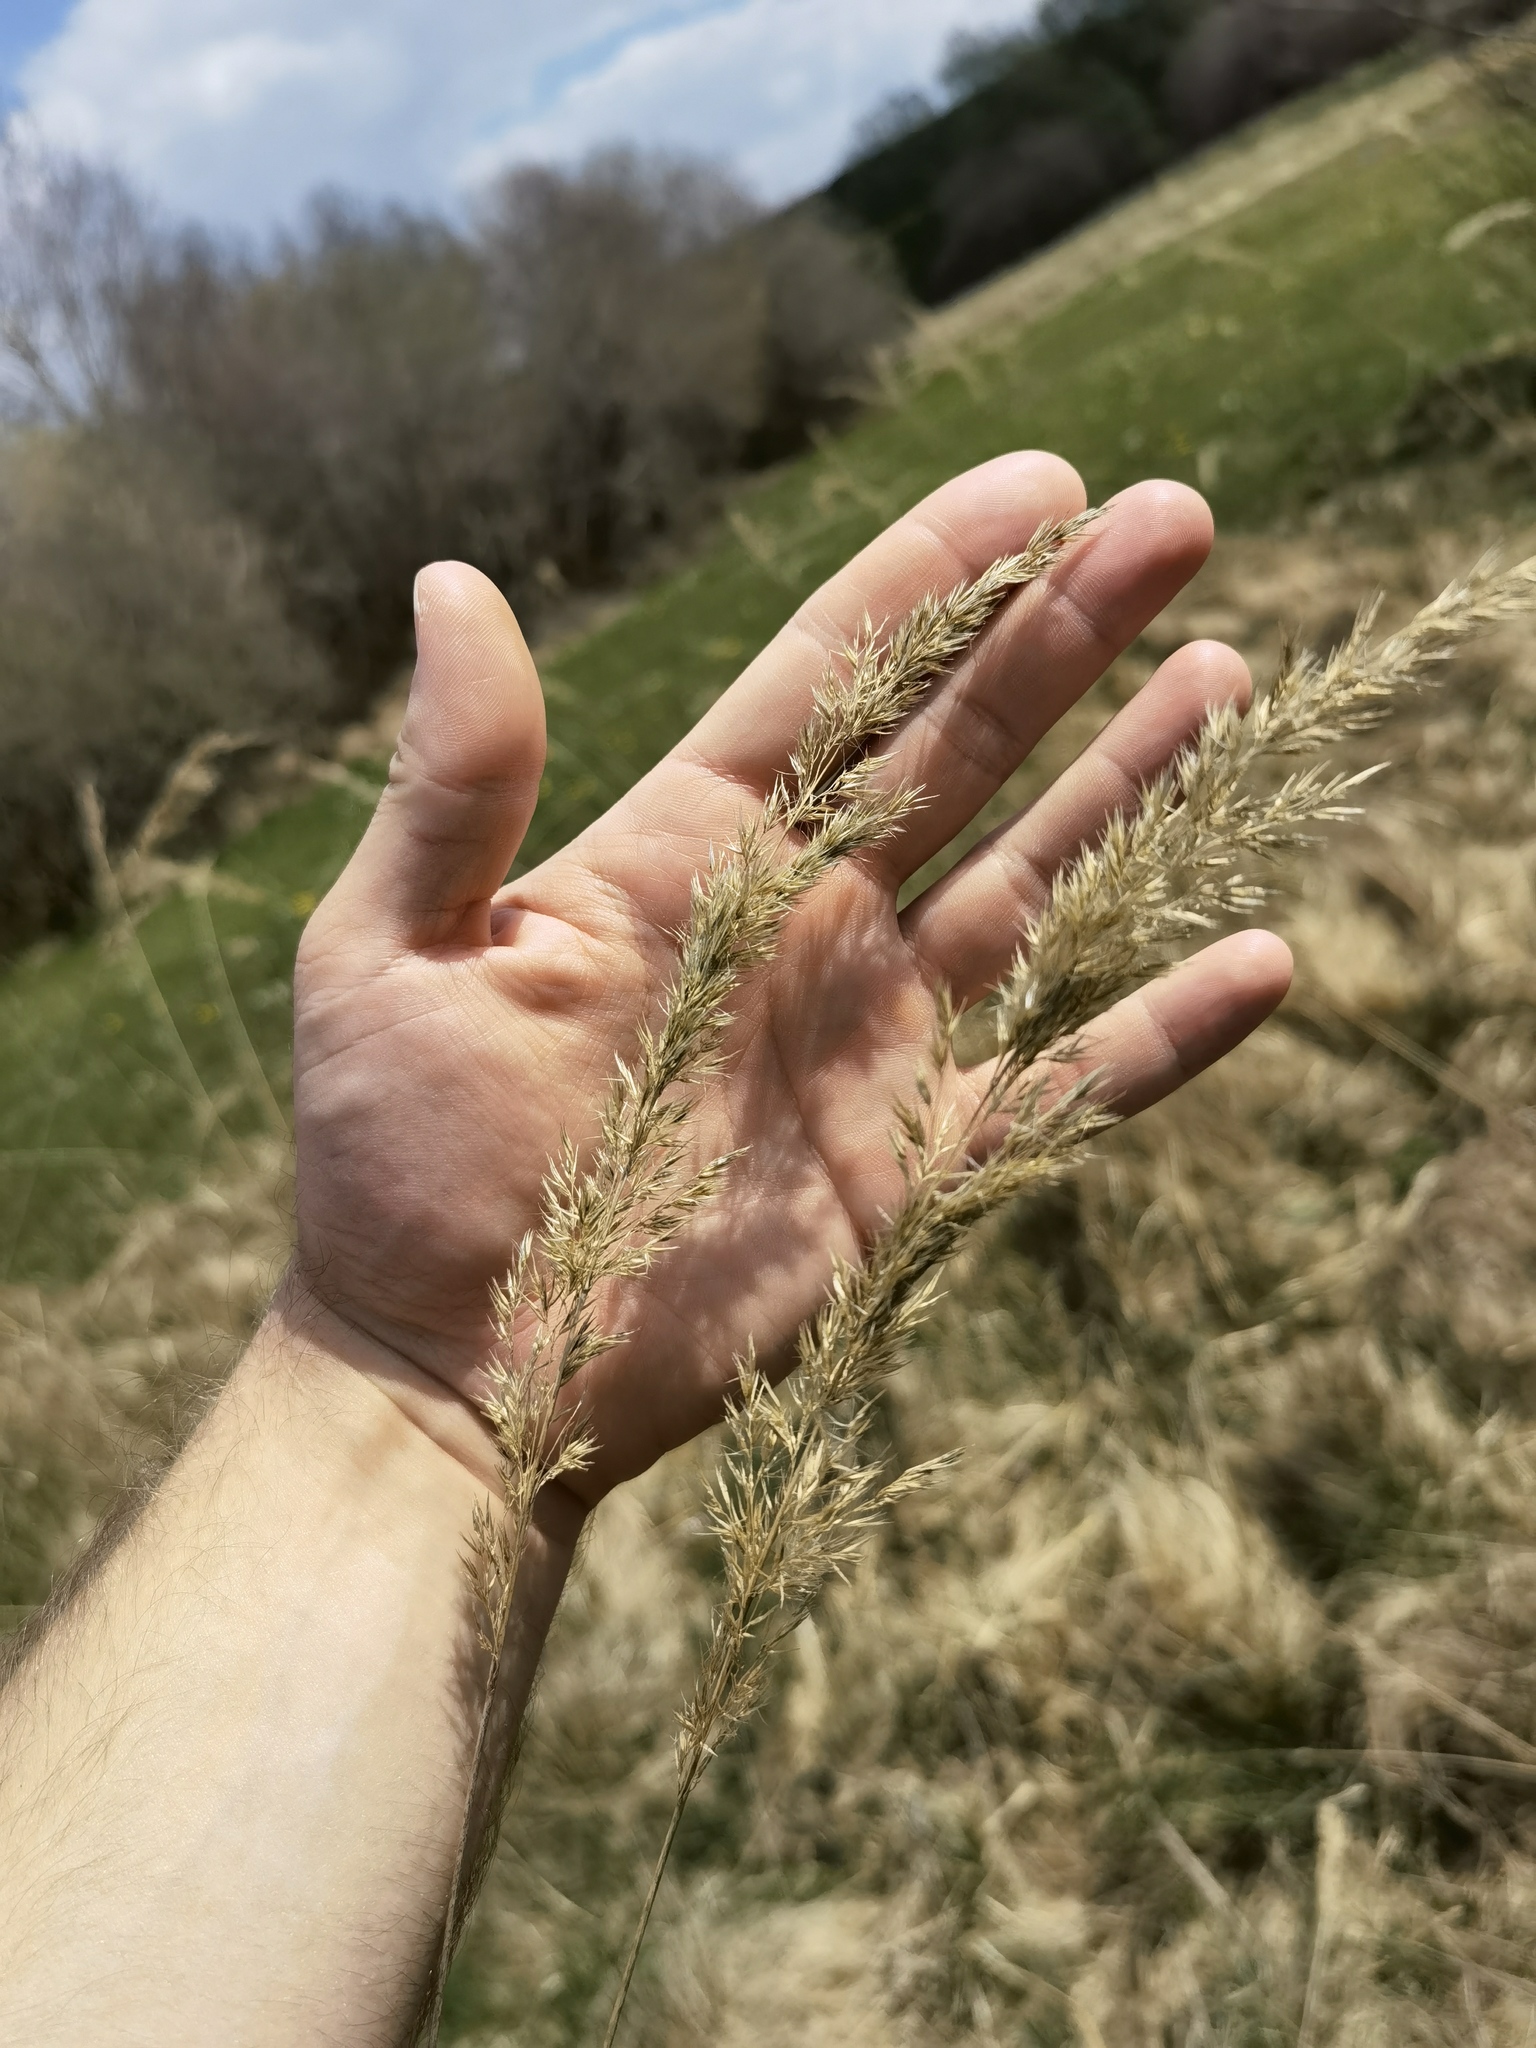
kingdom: Plantae
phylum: Tracheophyta
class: Liliopsida
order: Poales
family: Poaceae
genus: Calamagrostis
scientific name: Calamagrostis epigejos
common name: Wood small-reed
